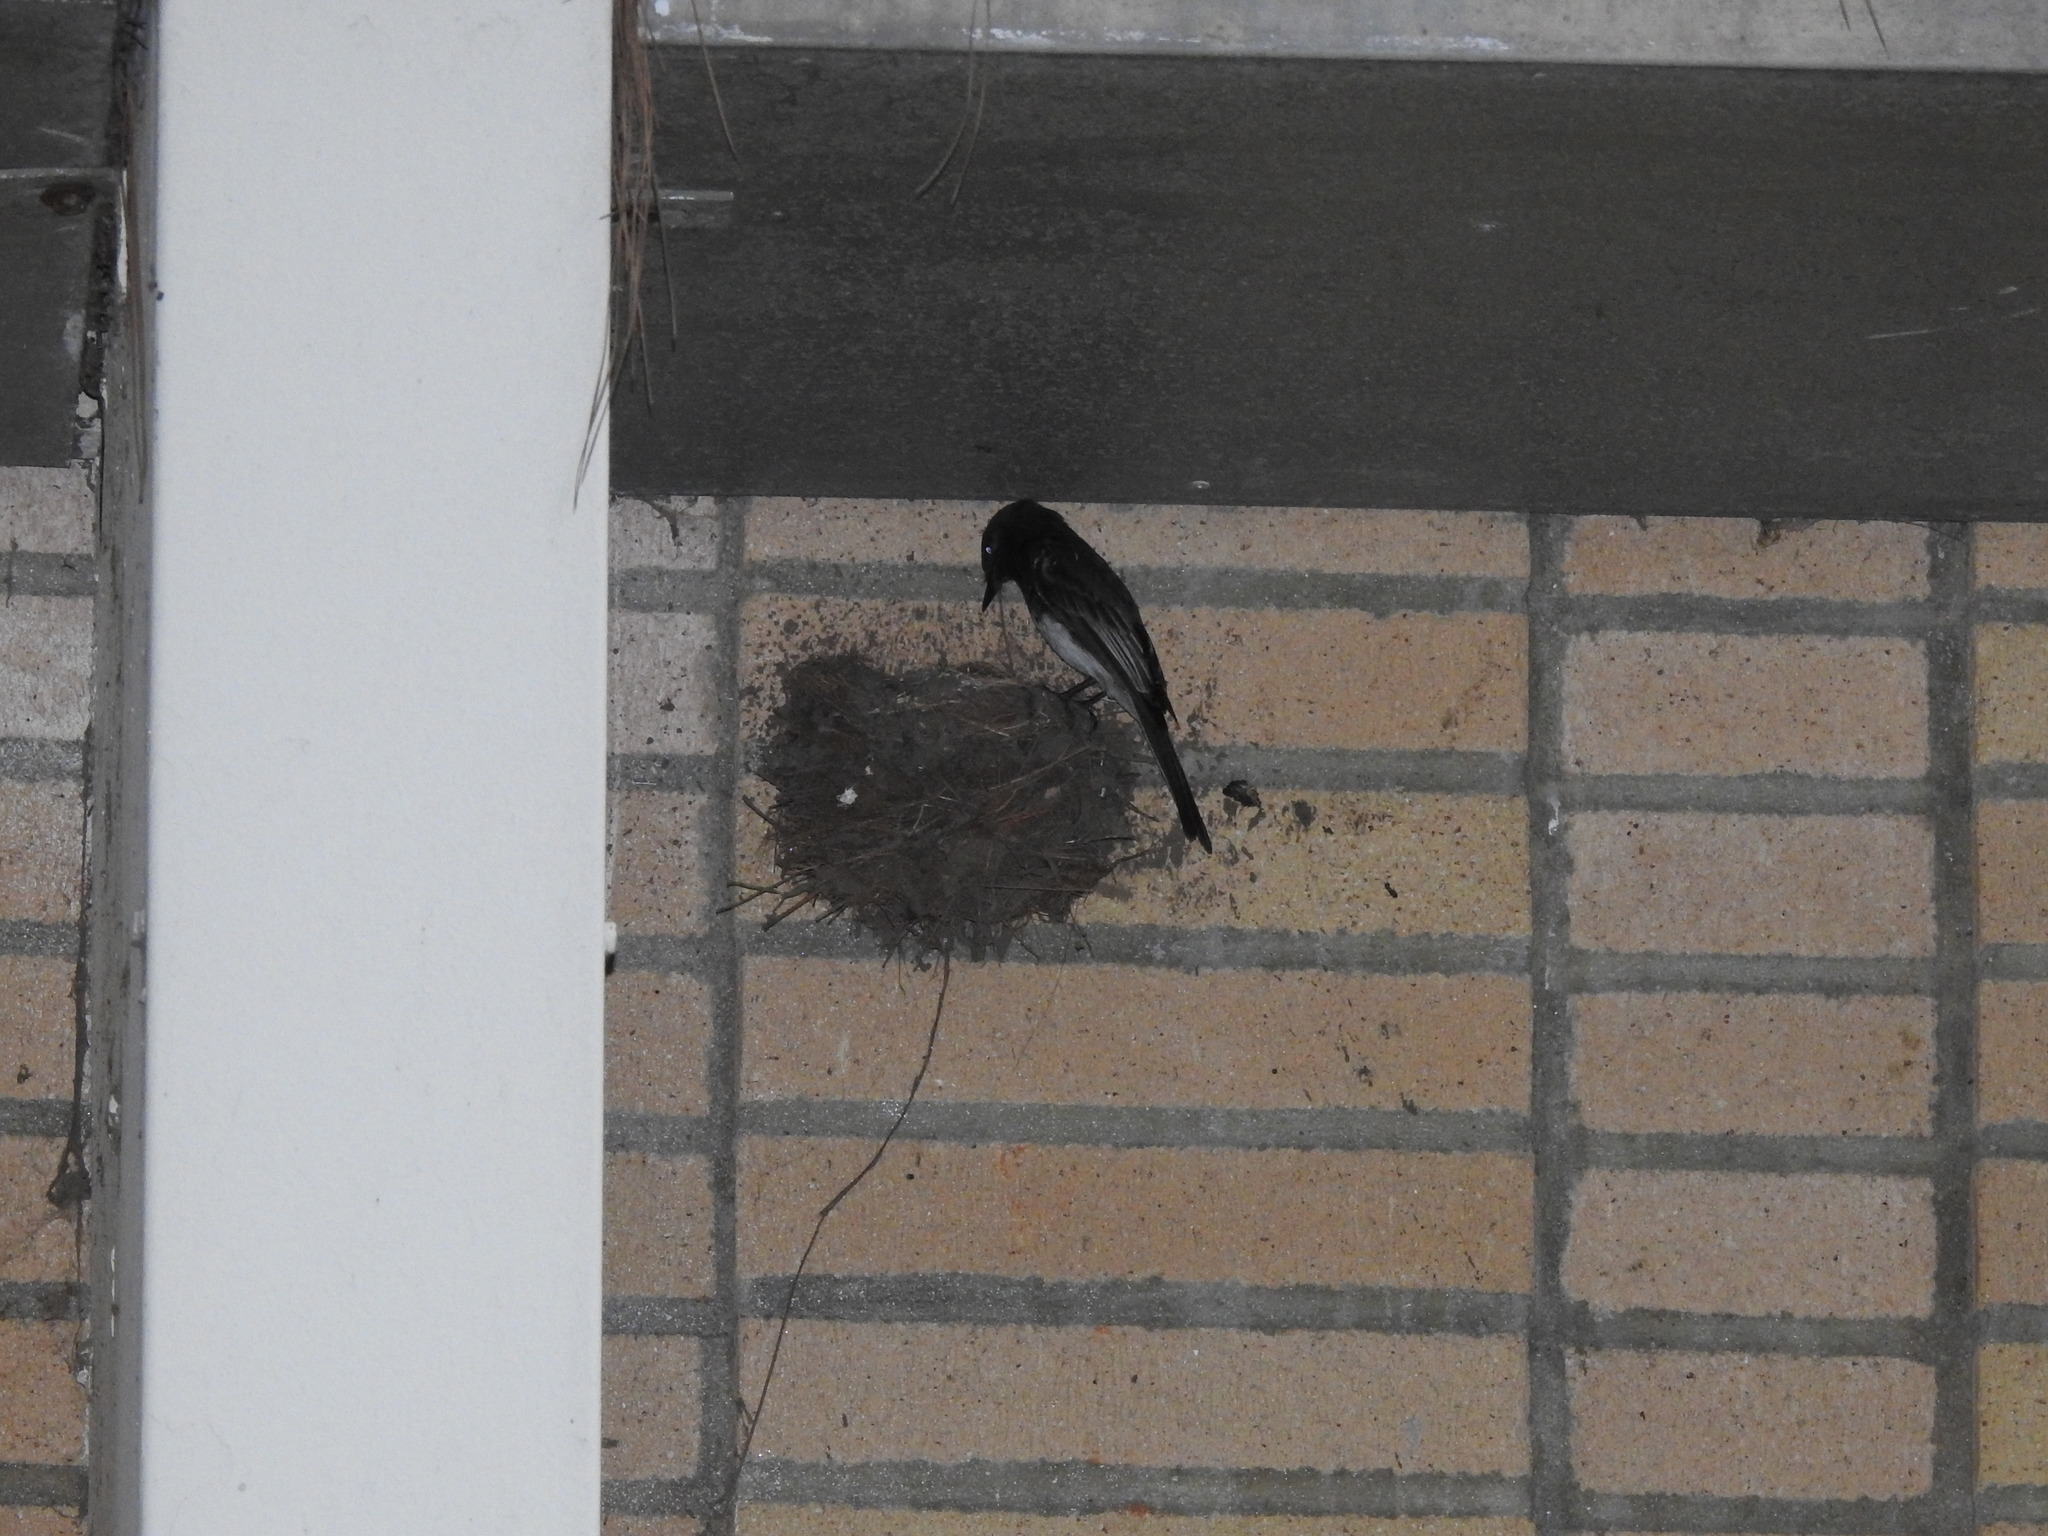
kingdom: Animalia
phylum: Chordata
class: Aves
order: Passeriformes
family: Tyrannidae
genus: Sayornis
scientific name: Sayornis nigricans
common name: Black phoebe
